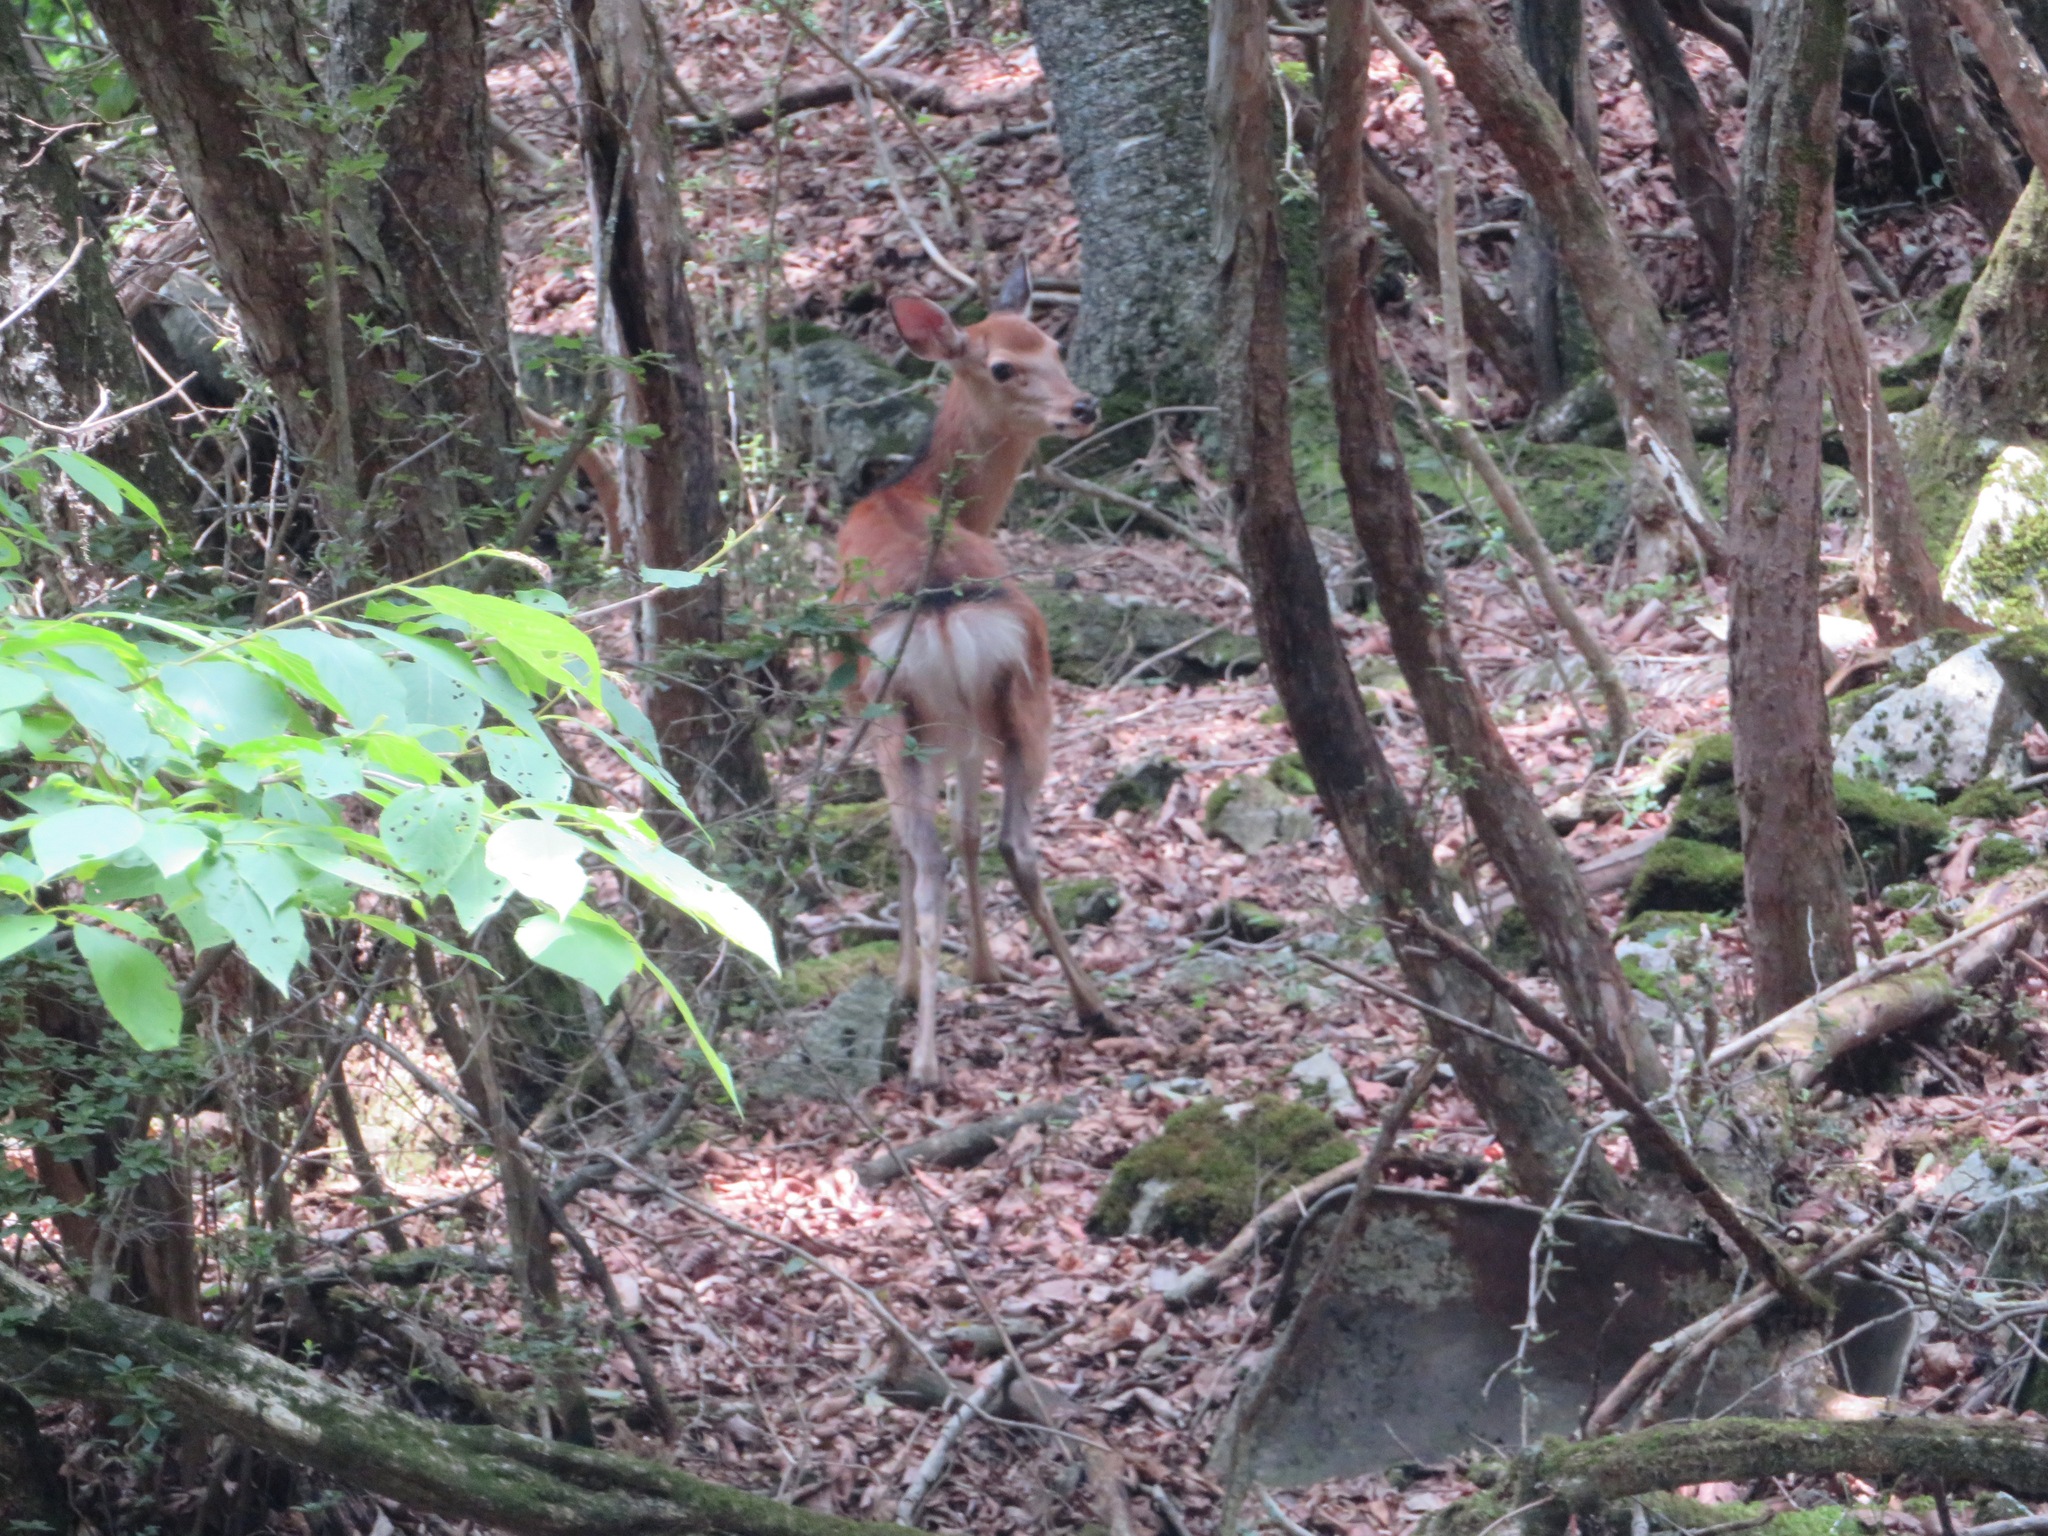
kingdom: Animalia
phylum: Chordata
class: Mammalia
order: Artiodactyla
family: Cervidae
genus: Cervus
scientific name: Cervus nippon
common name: Sika deer
